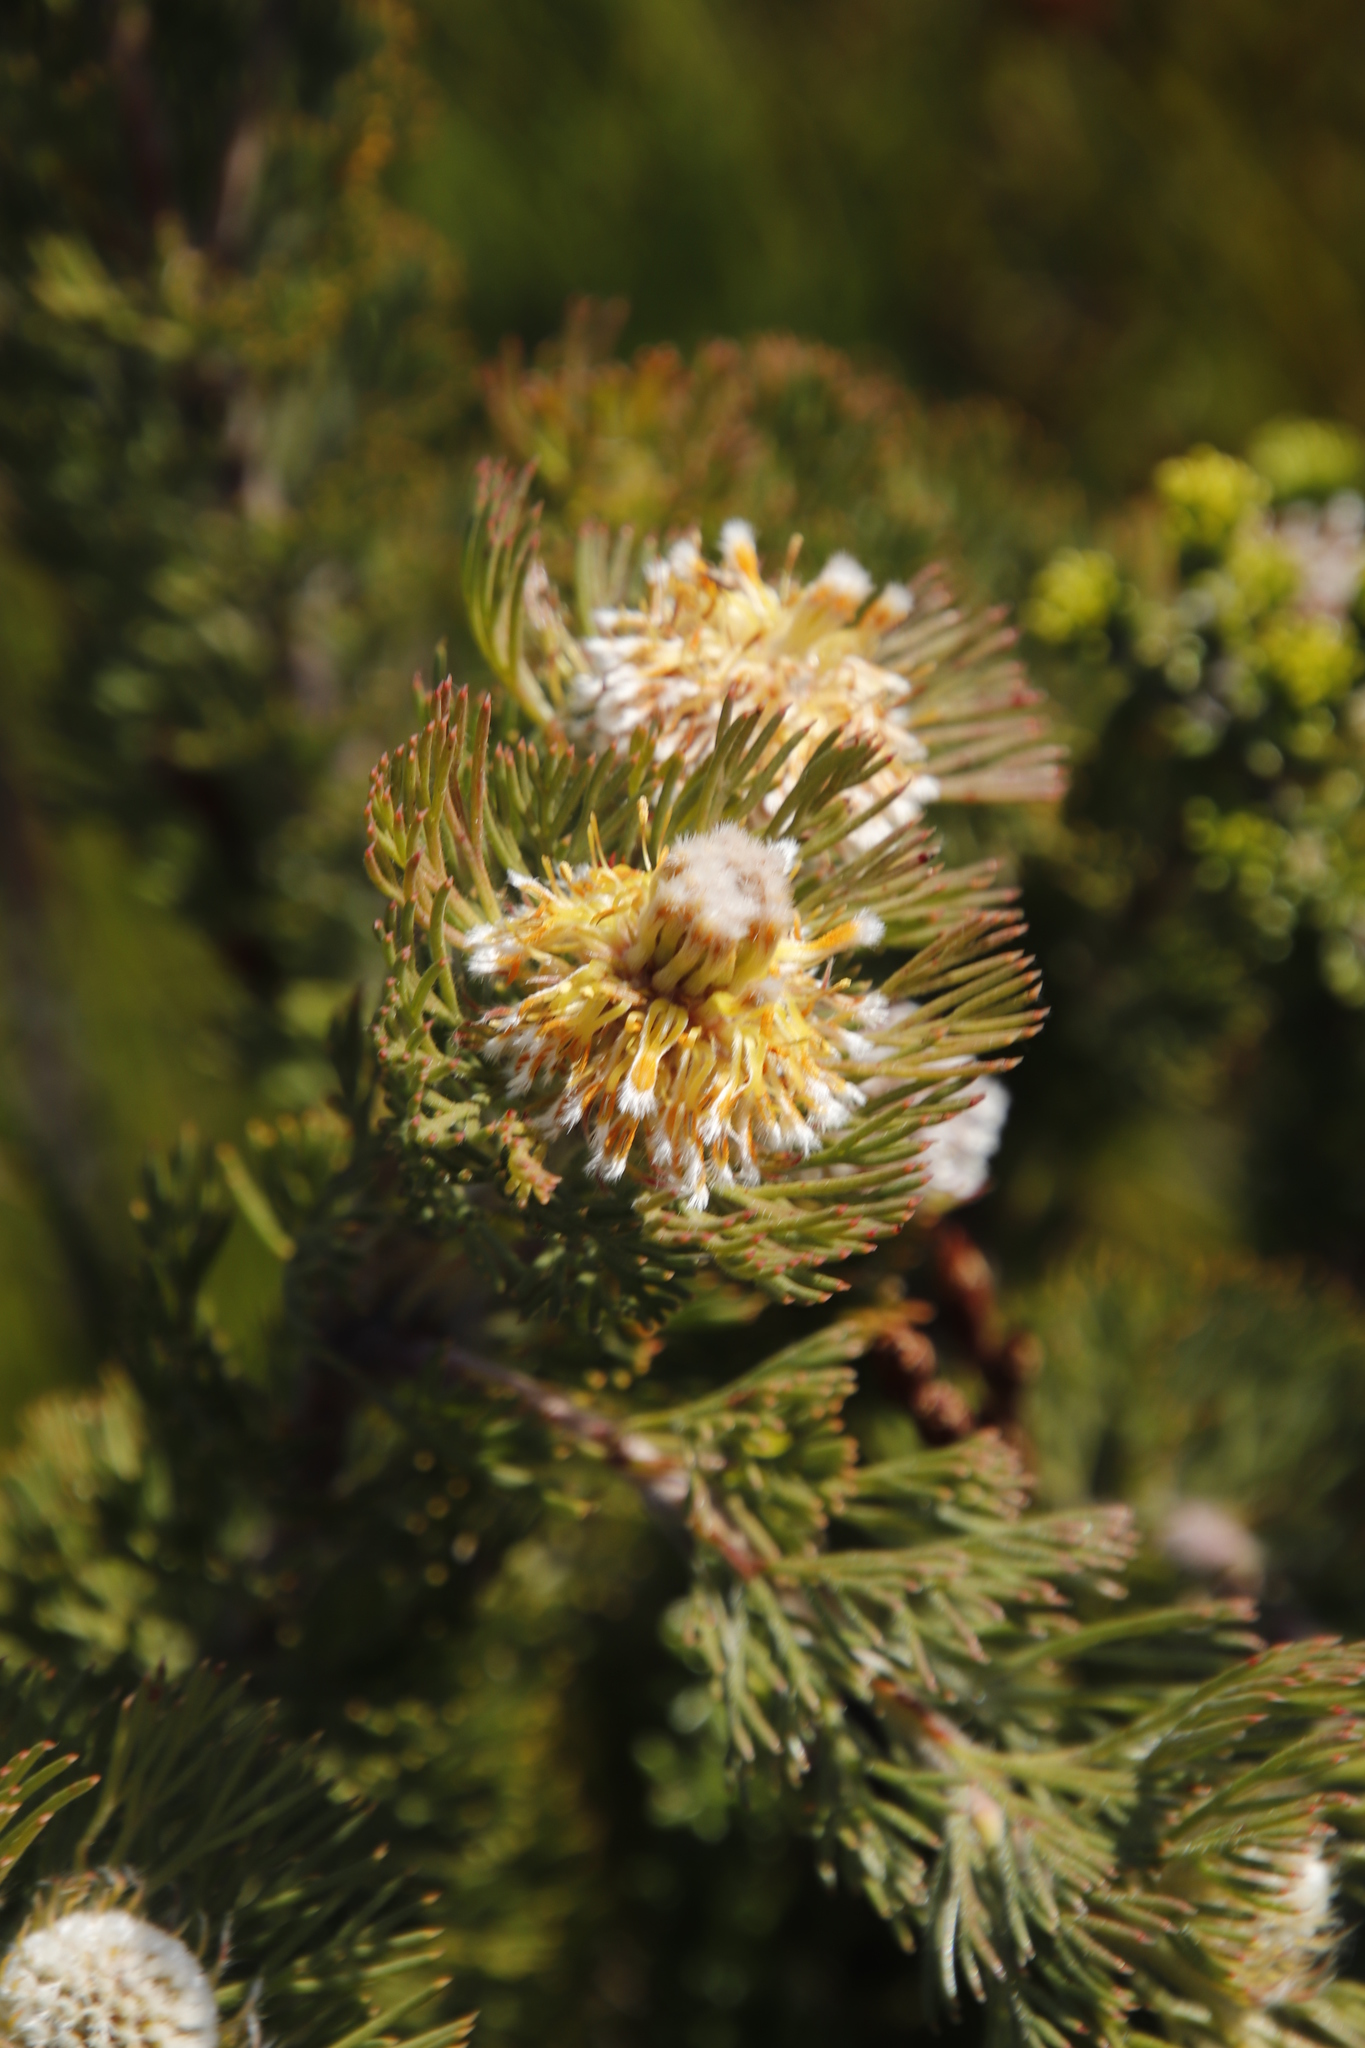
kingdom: Plantae
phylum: Tracheophyta
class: Magnoliopsida
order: Proteales
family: Proteaceae
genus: Serruria
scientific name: Serruria villosa
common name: Golden spiderhead
